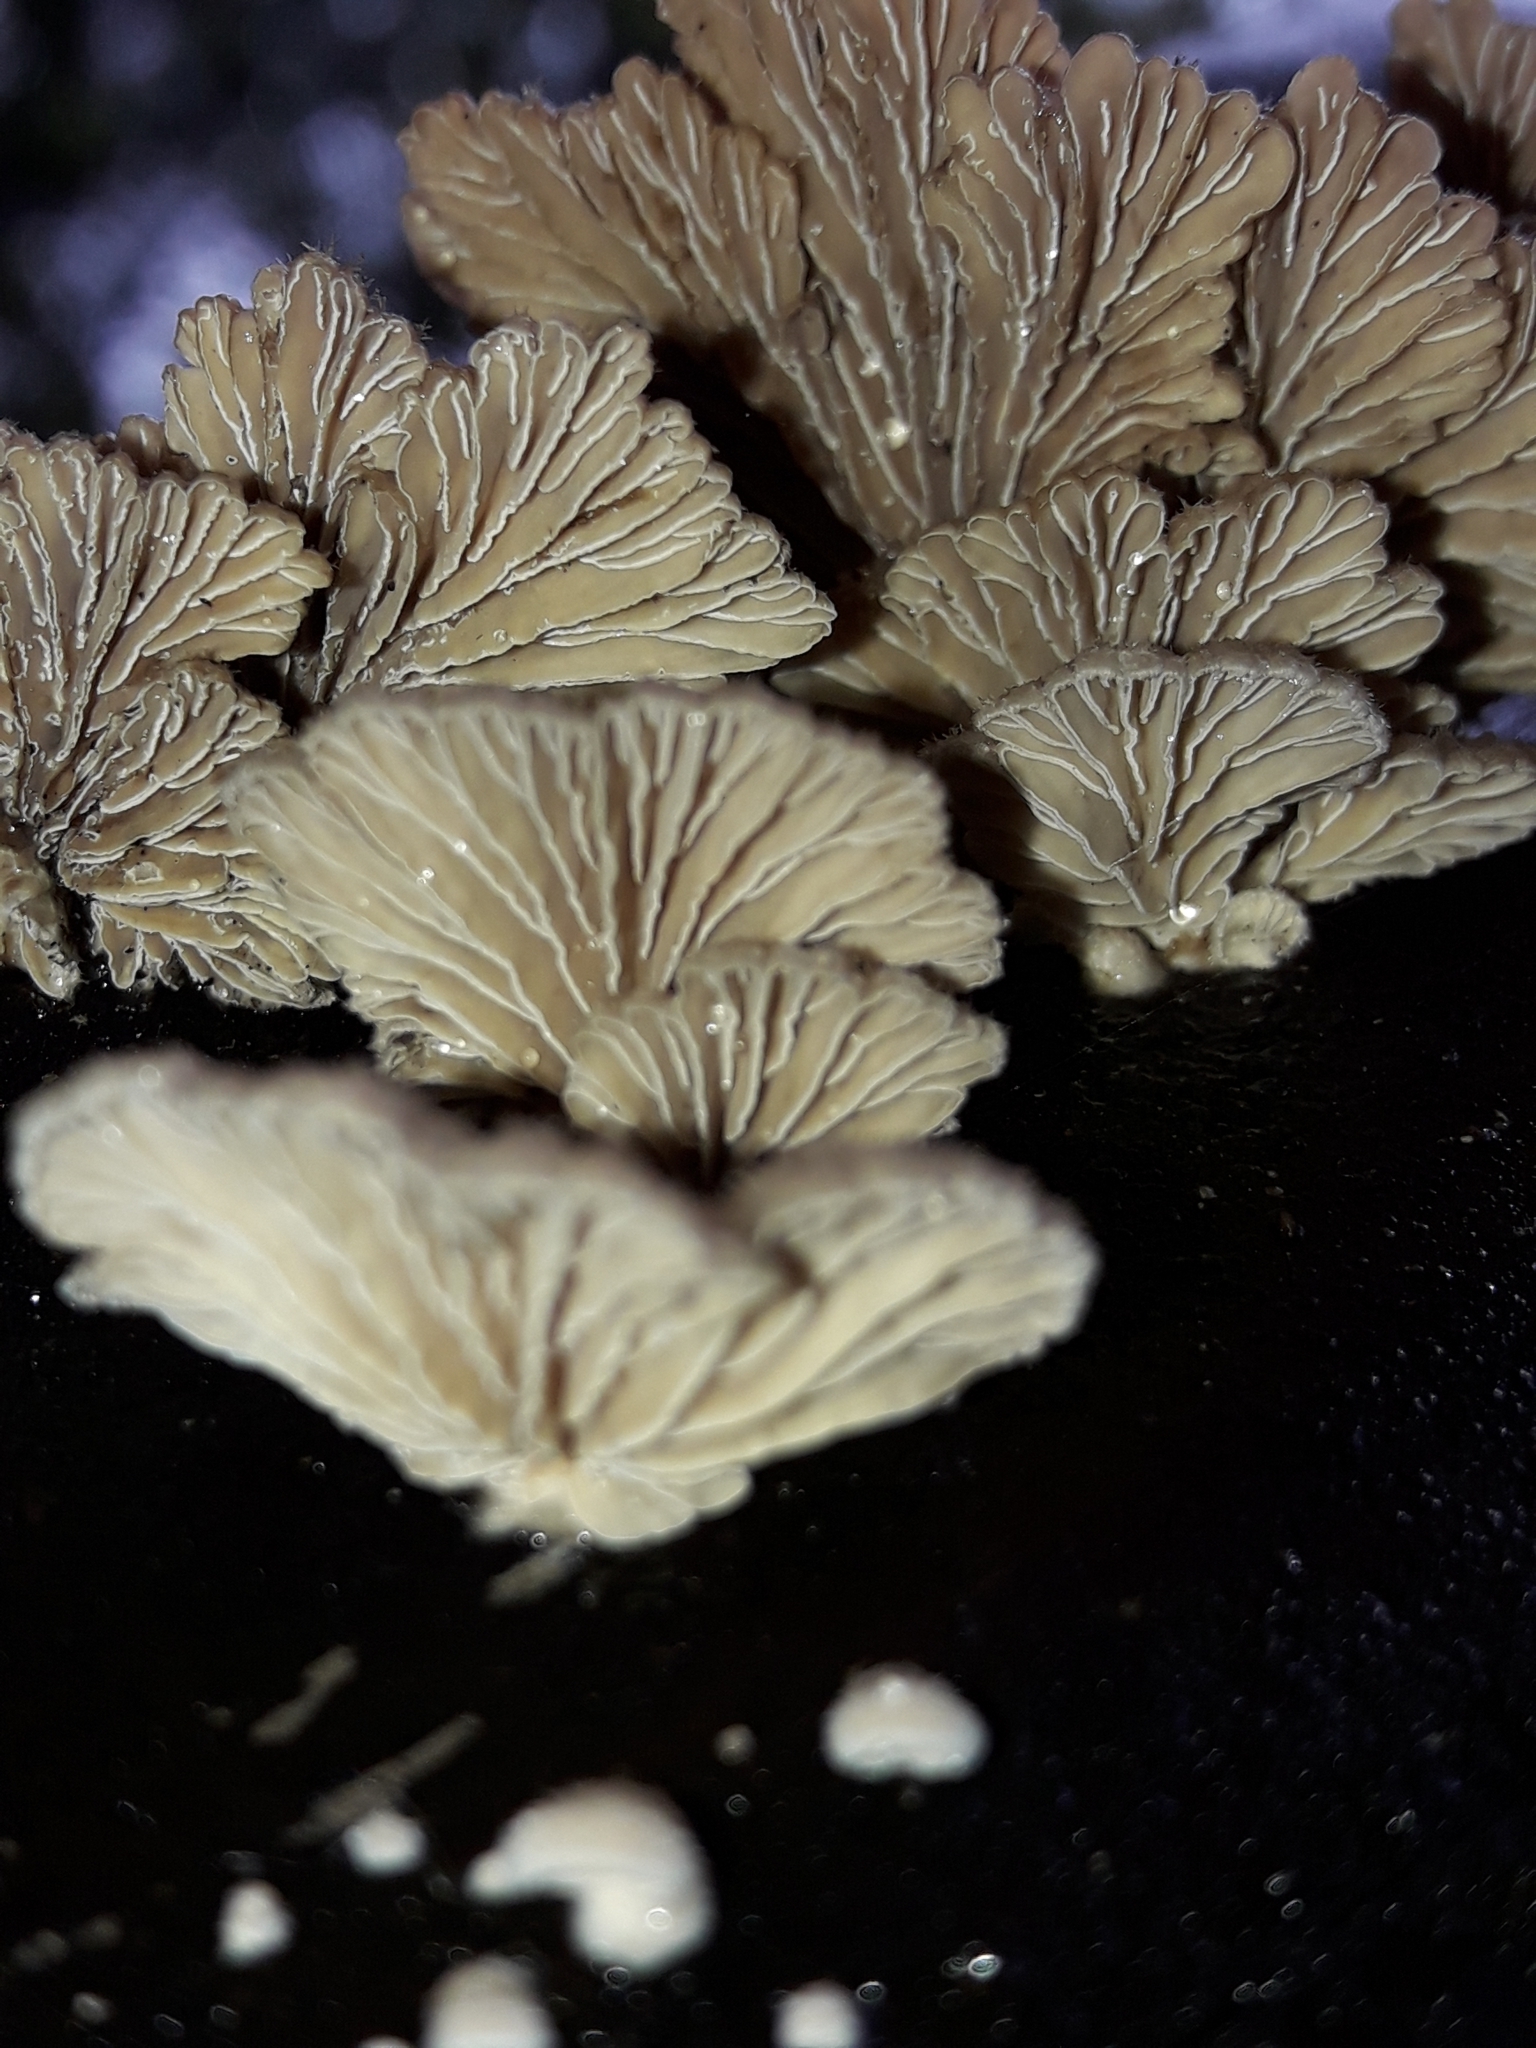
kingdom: Fungi
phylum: Basidiomycota
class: Agaricomycetes
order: Agaricales
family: Schizophyllaceae
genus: Schizophyllum
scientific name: Schizophyllum commune
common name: Common porecrust
